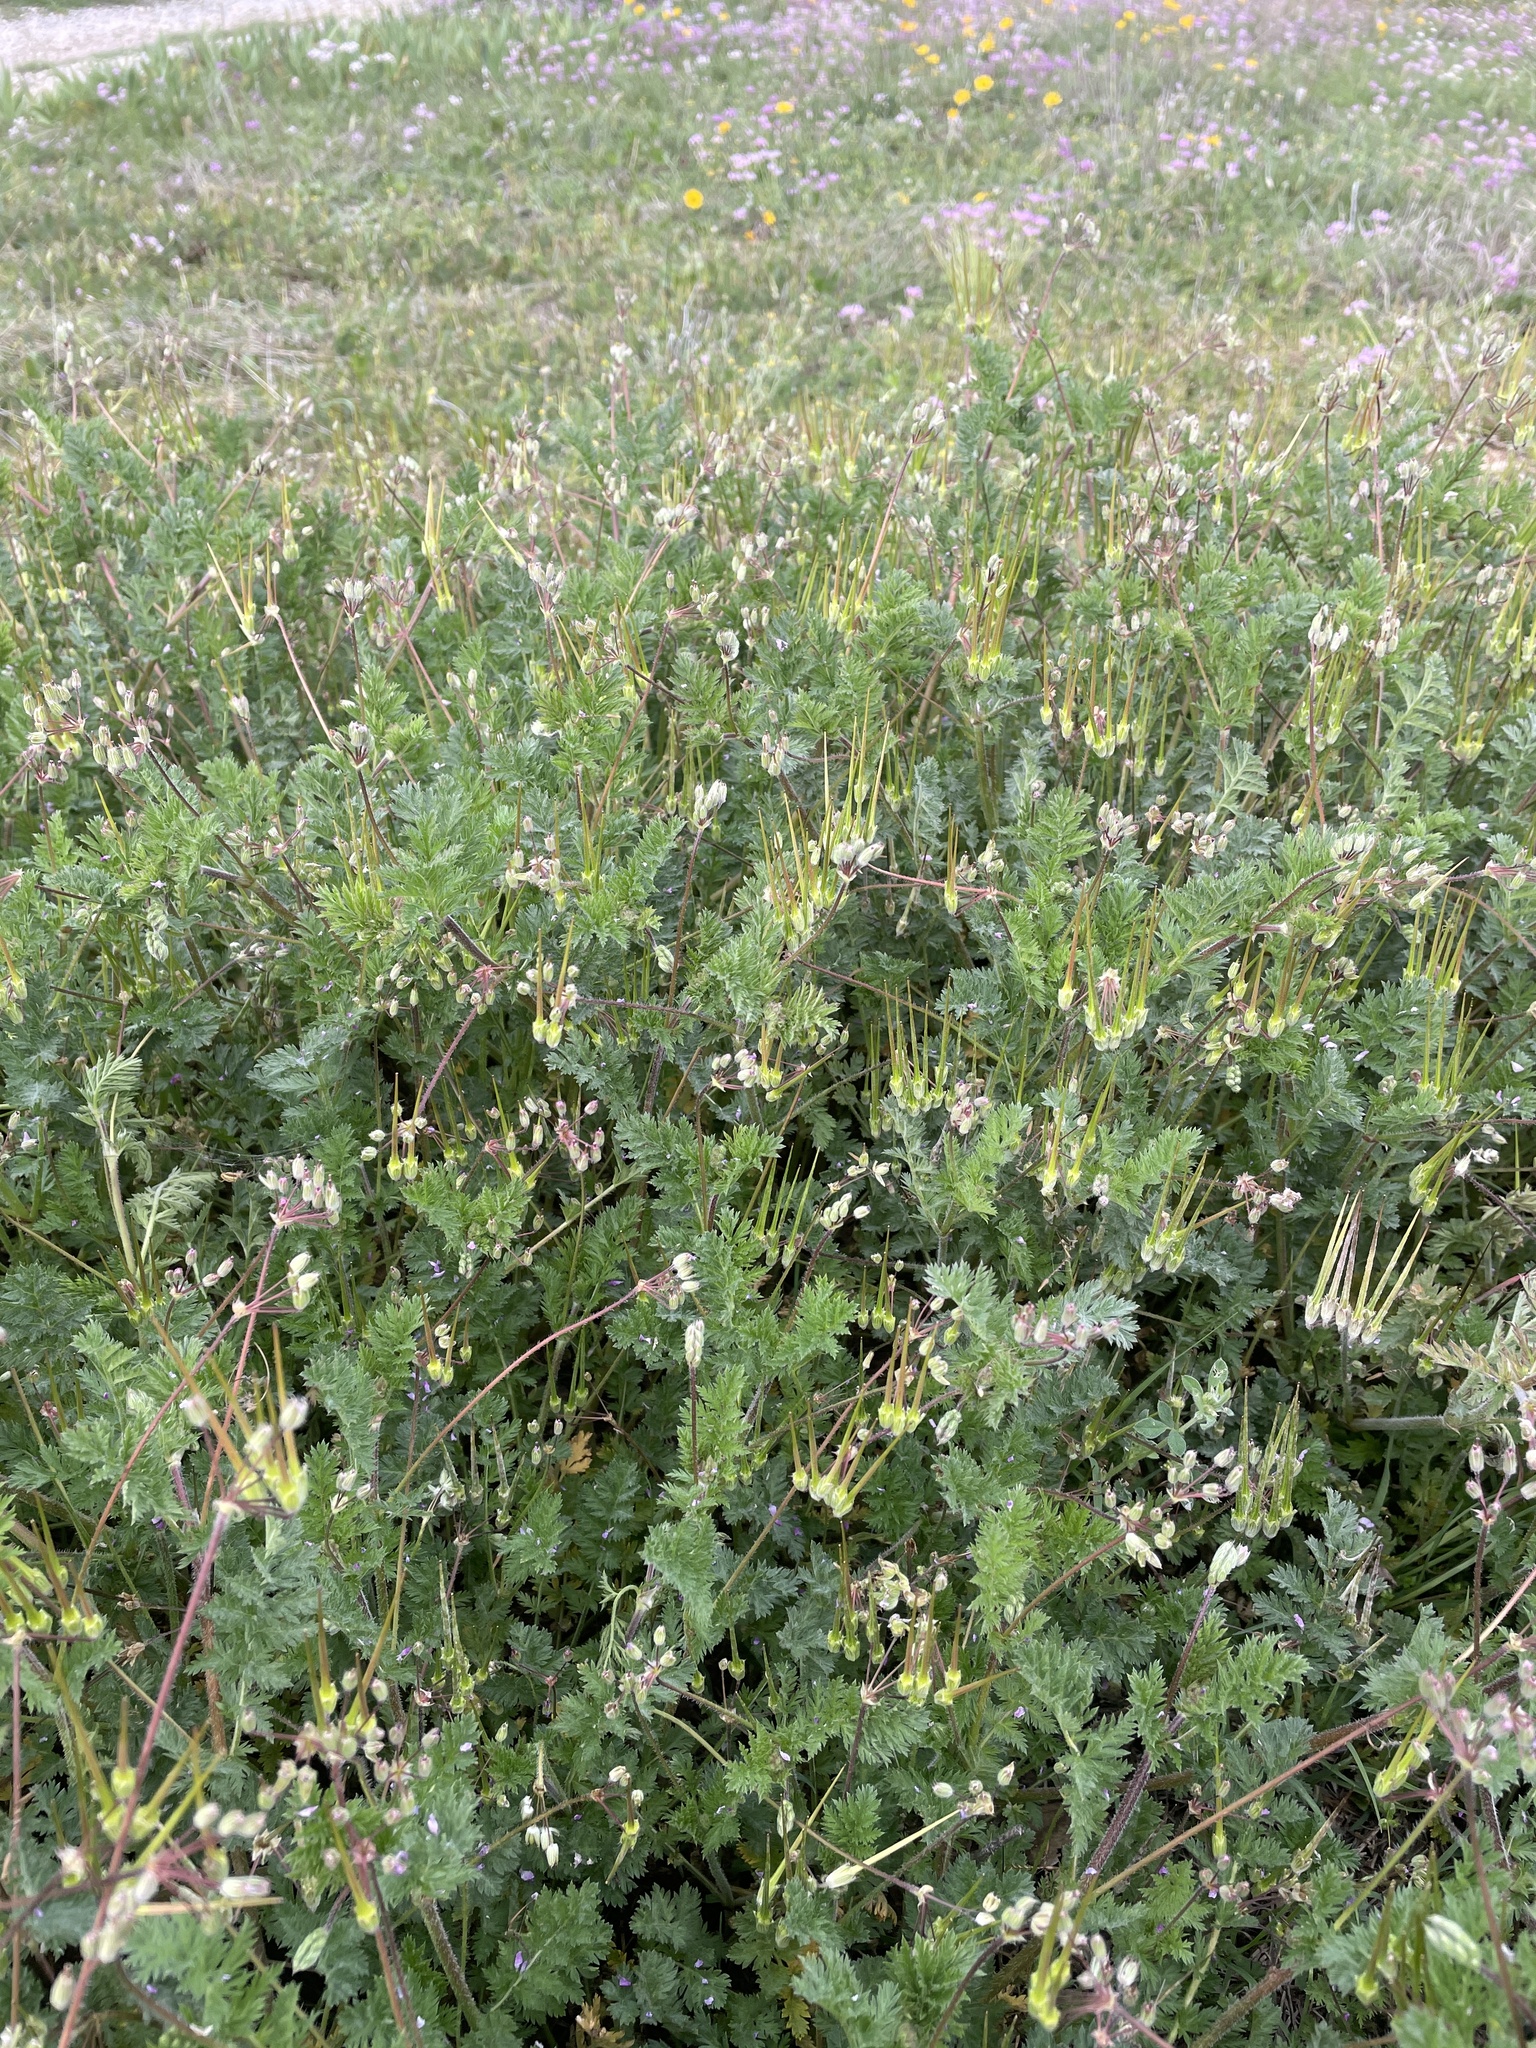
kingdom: Plantae
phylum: Tracheophyta
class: Magnoliopsida
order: Geraniales
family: Geraniaceae
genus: Erodium
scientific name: Erodium cicutarium
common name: Common stork's-bill
